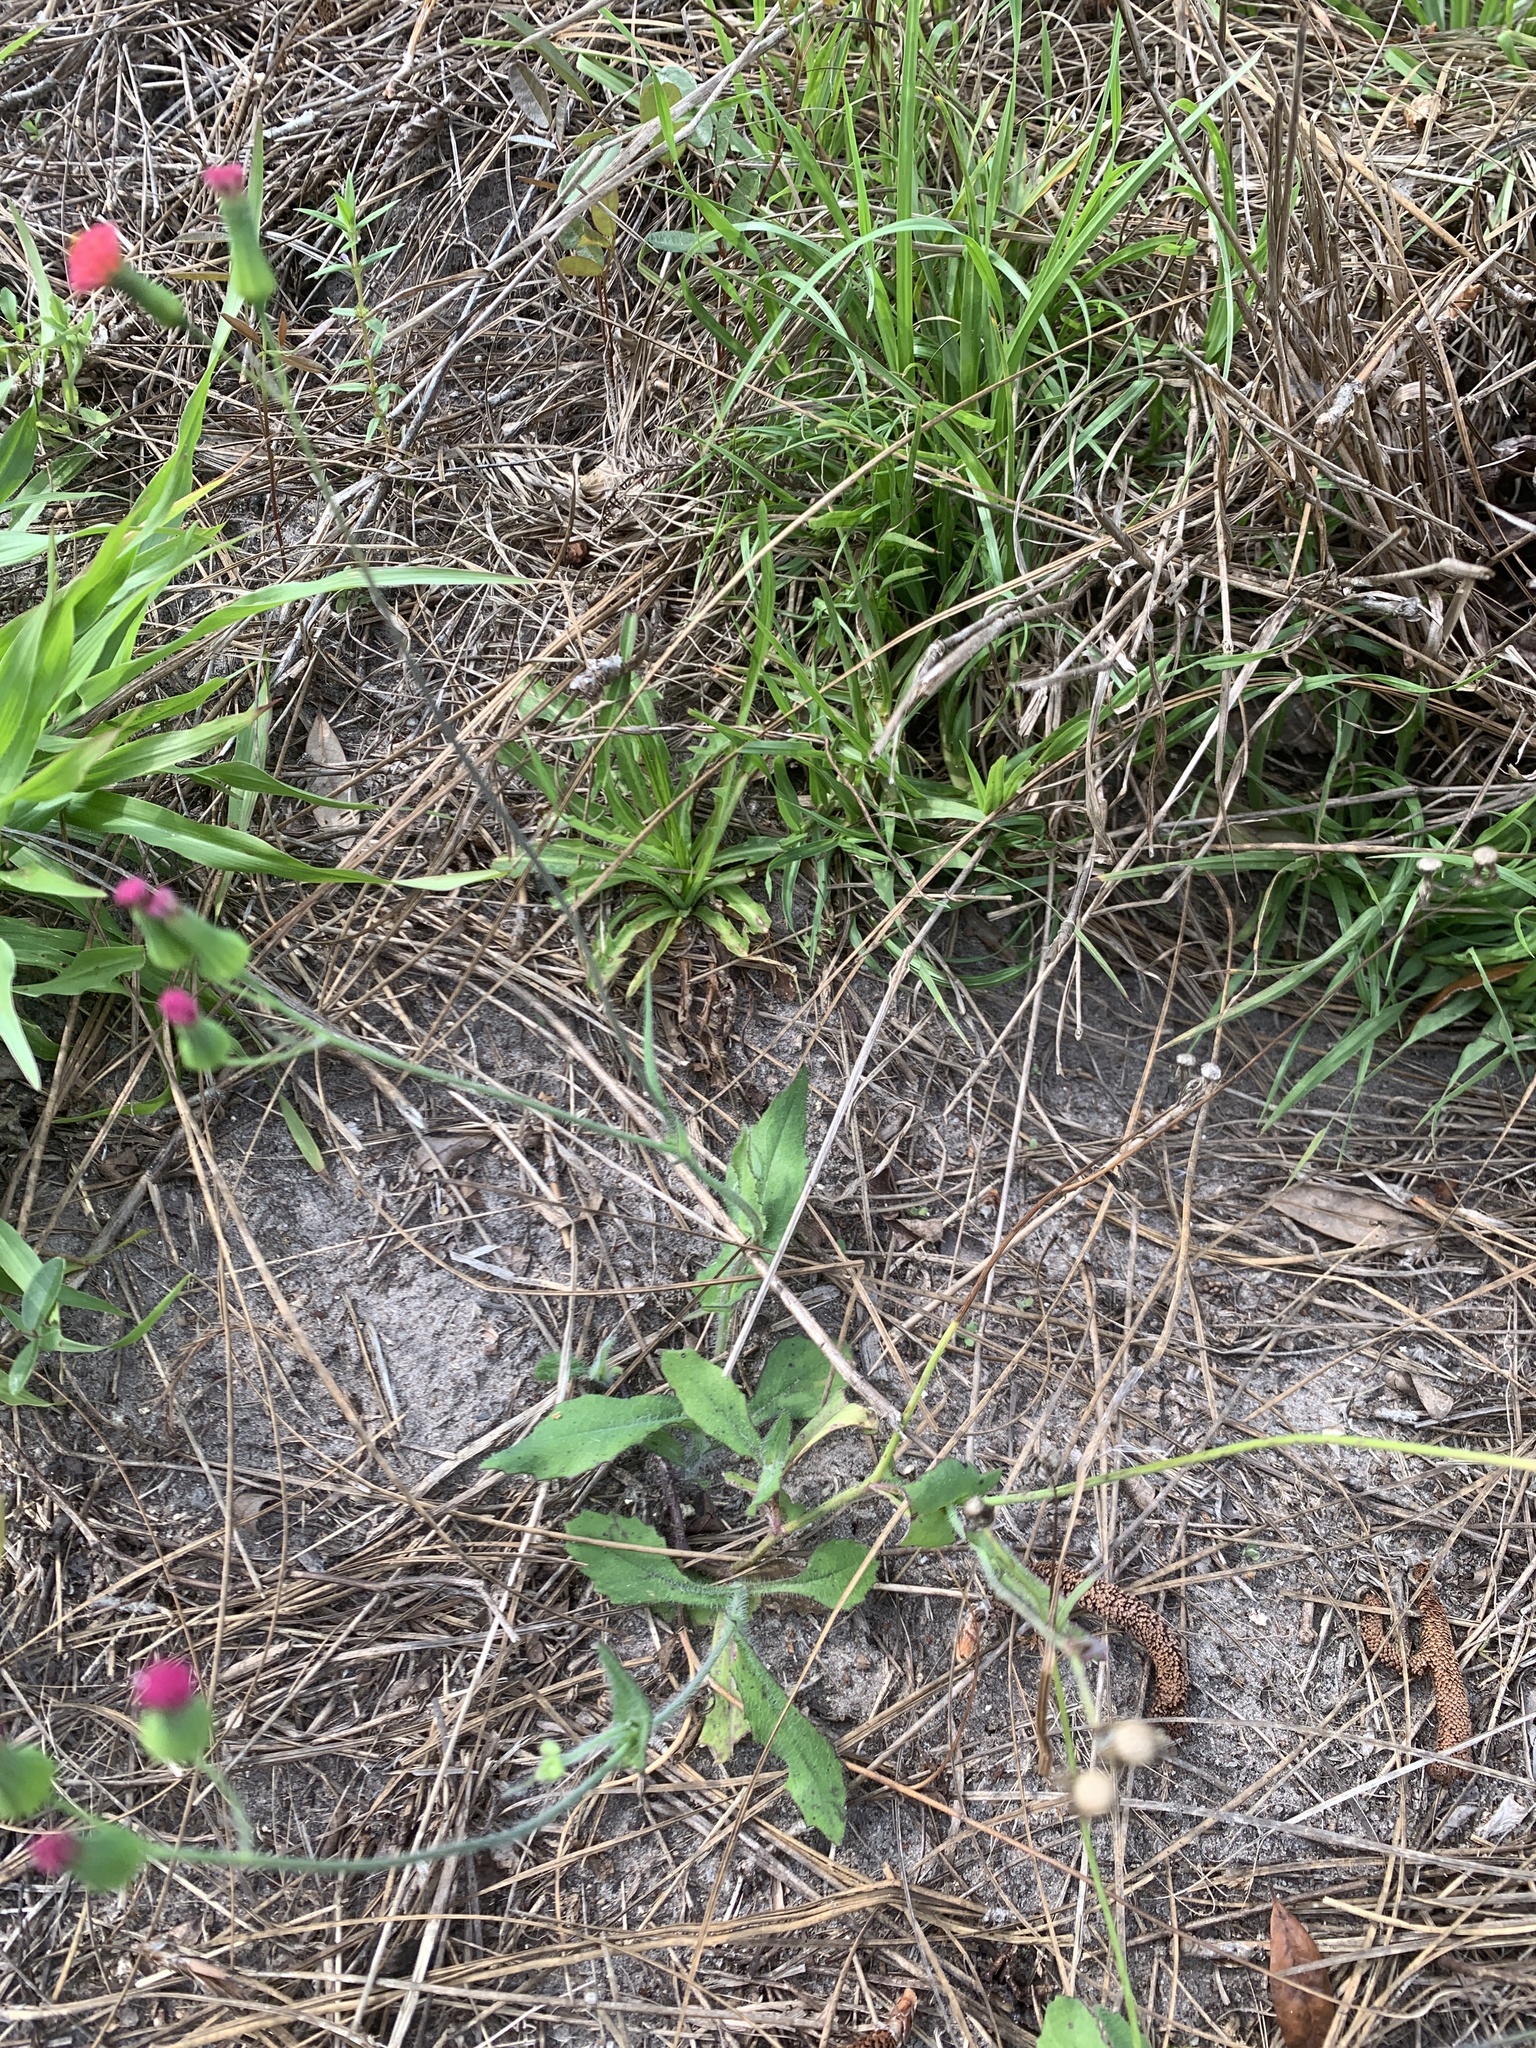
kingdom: Plantae
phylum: Tracheophyta
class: Magnoliopsida
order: Asterales
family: Asteraceae
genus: Emilia
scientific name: Emilia fosbergii
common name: Florida tasselflower
